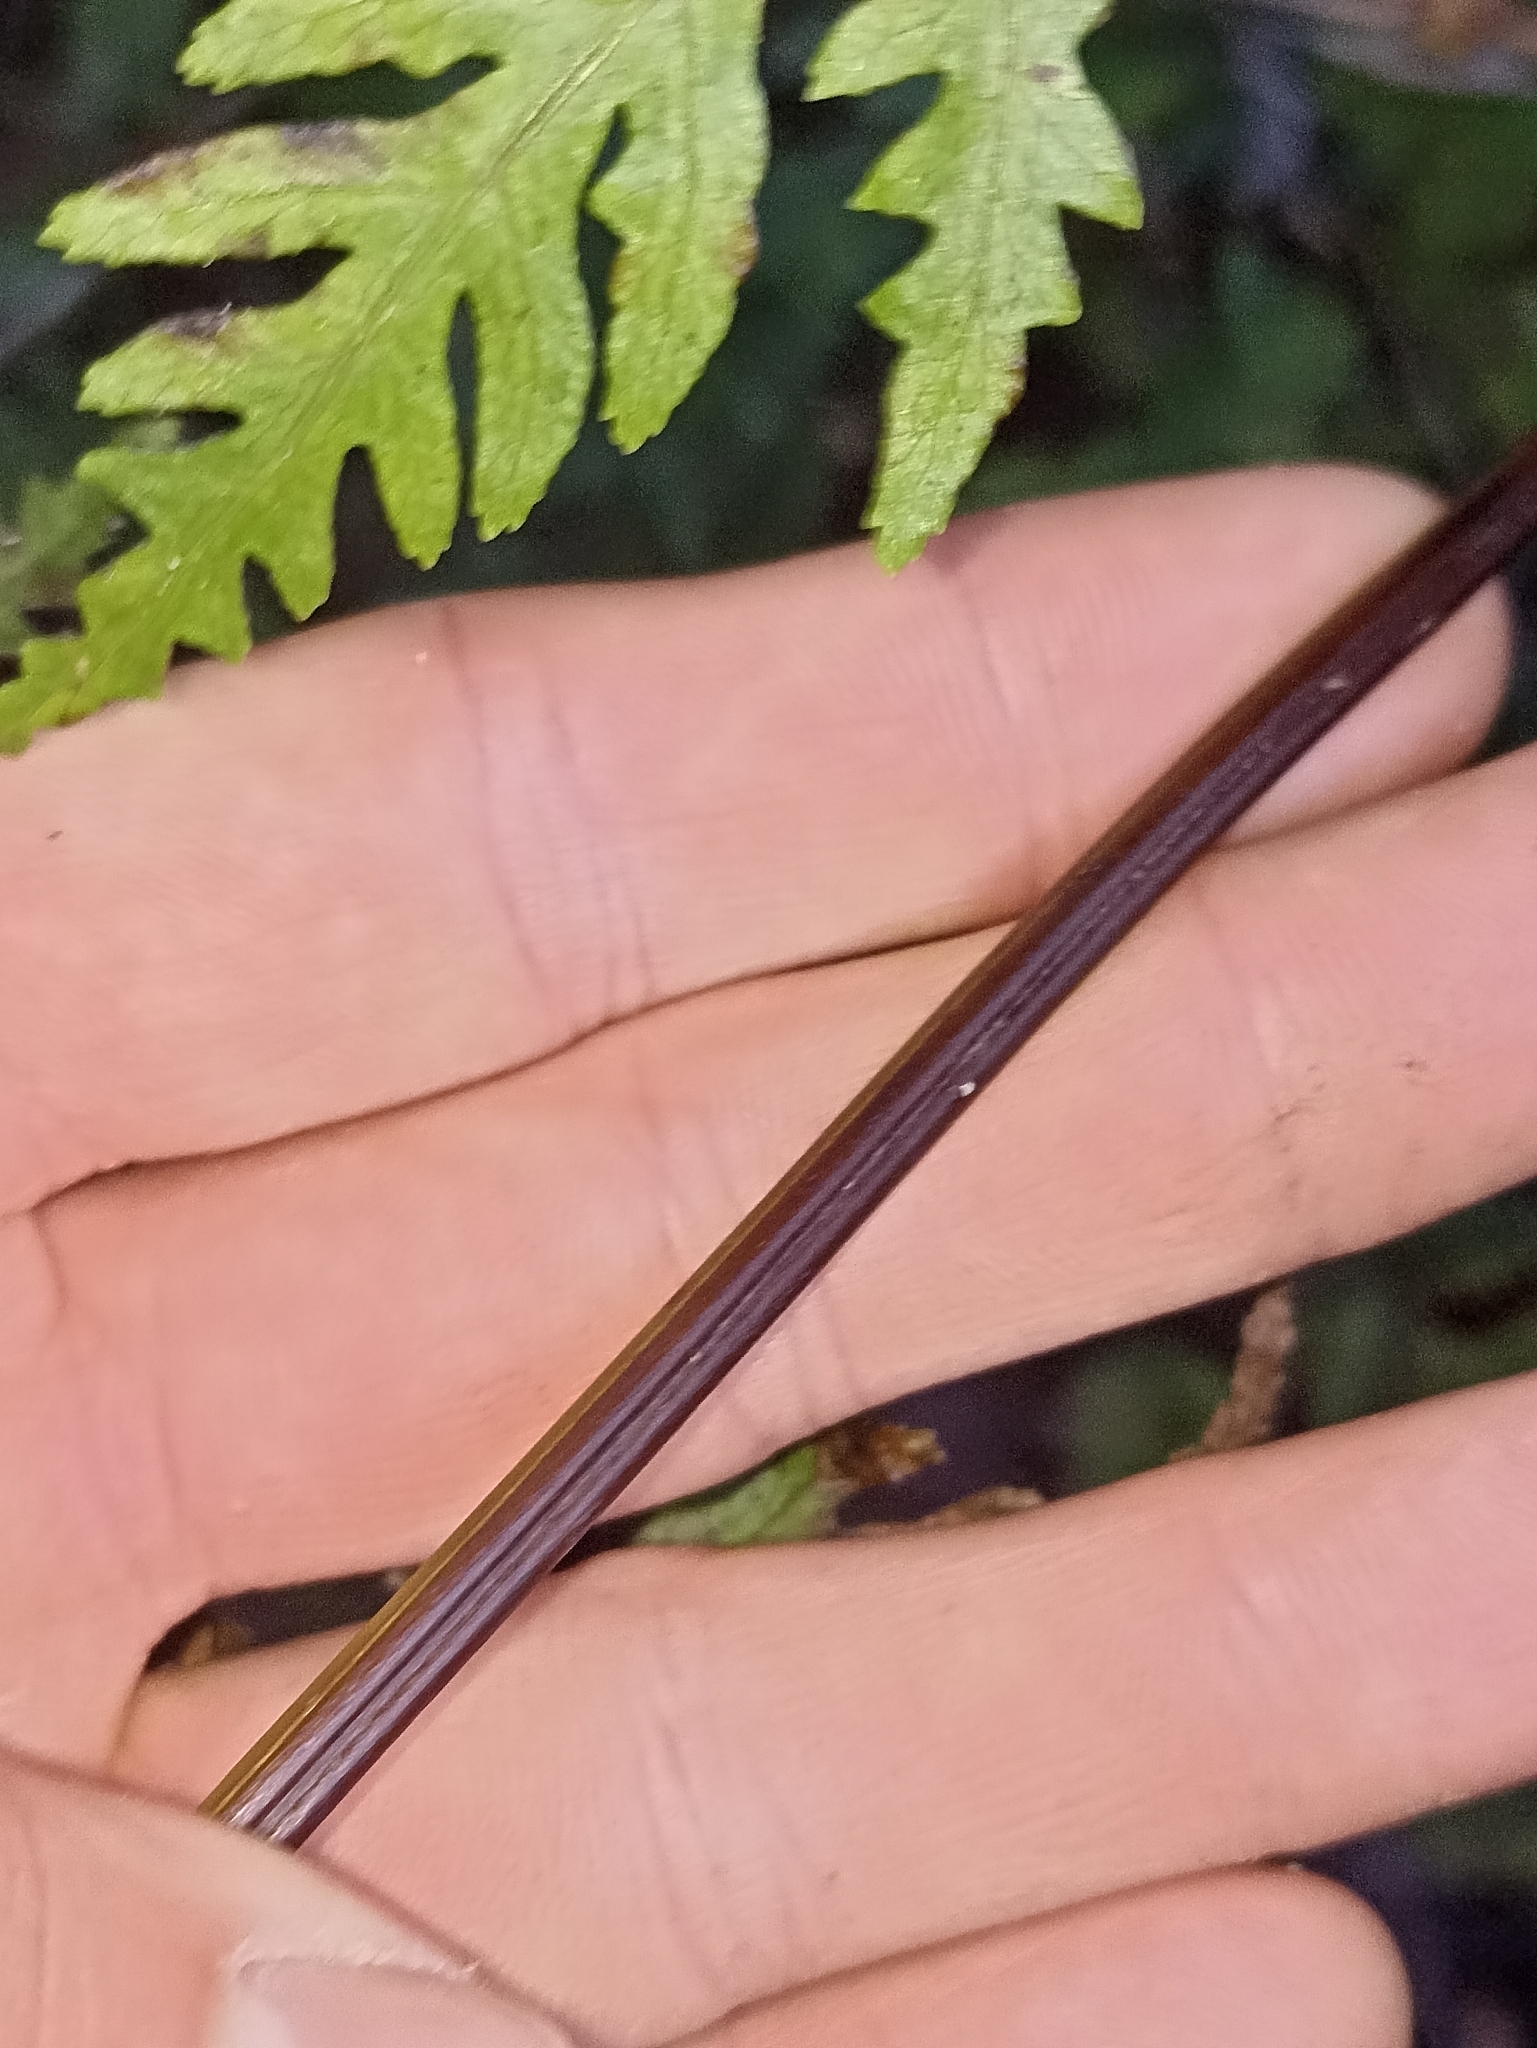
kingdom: Plantae
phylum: Tracheophyta
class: Polypodiopsida
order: Polypodiales
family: Pteridaceae
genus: Pteris
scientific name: Pteris macilenta
